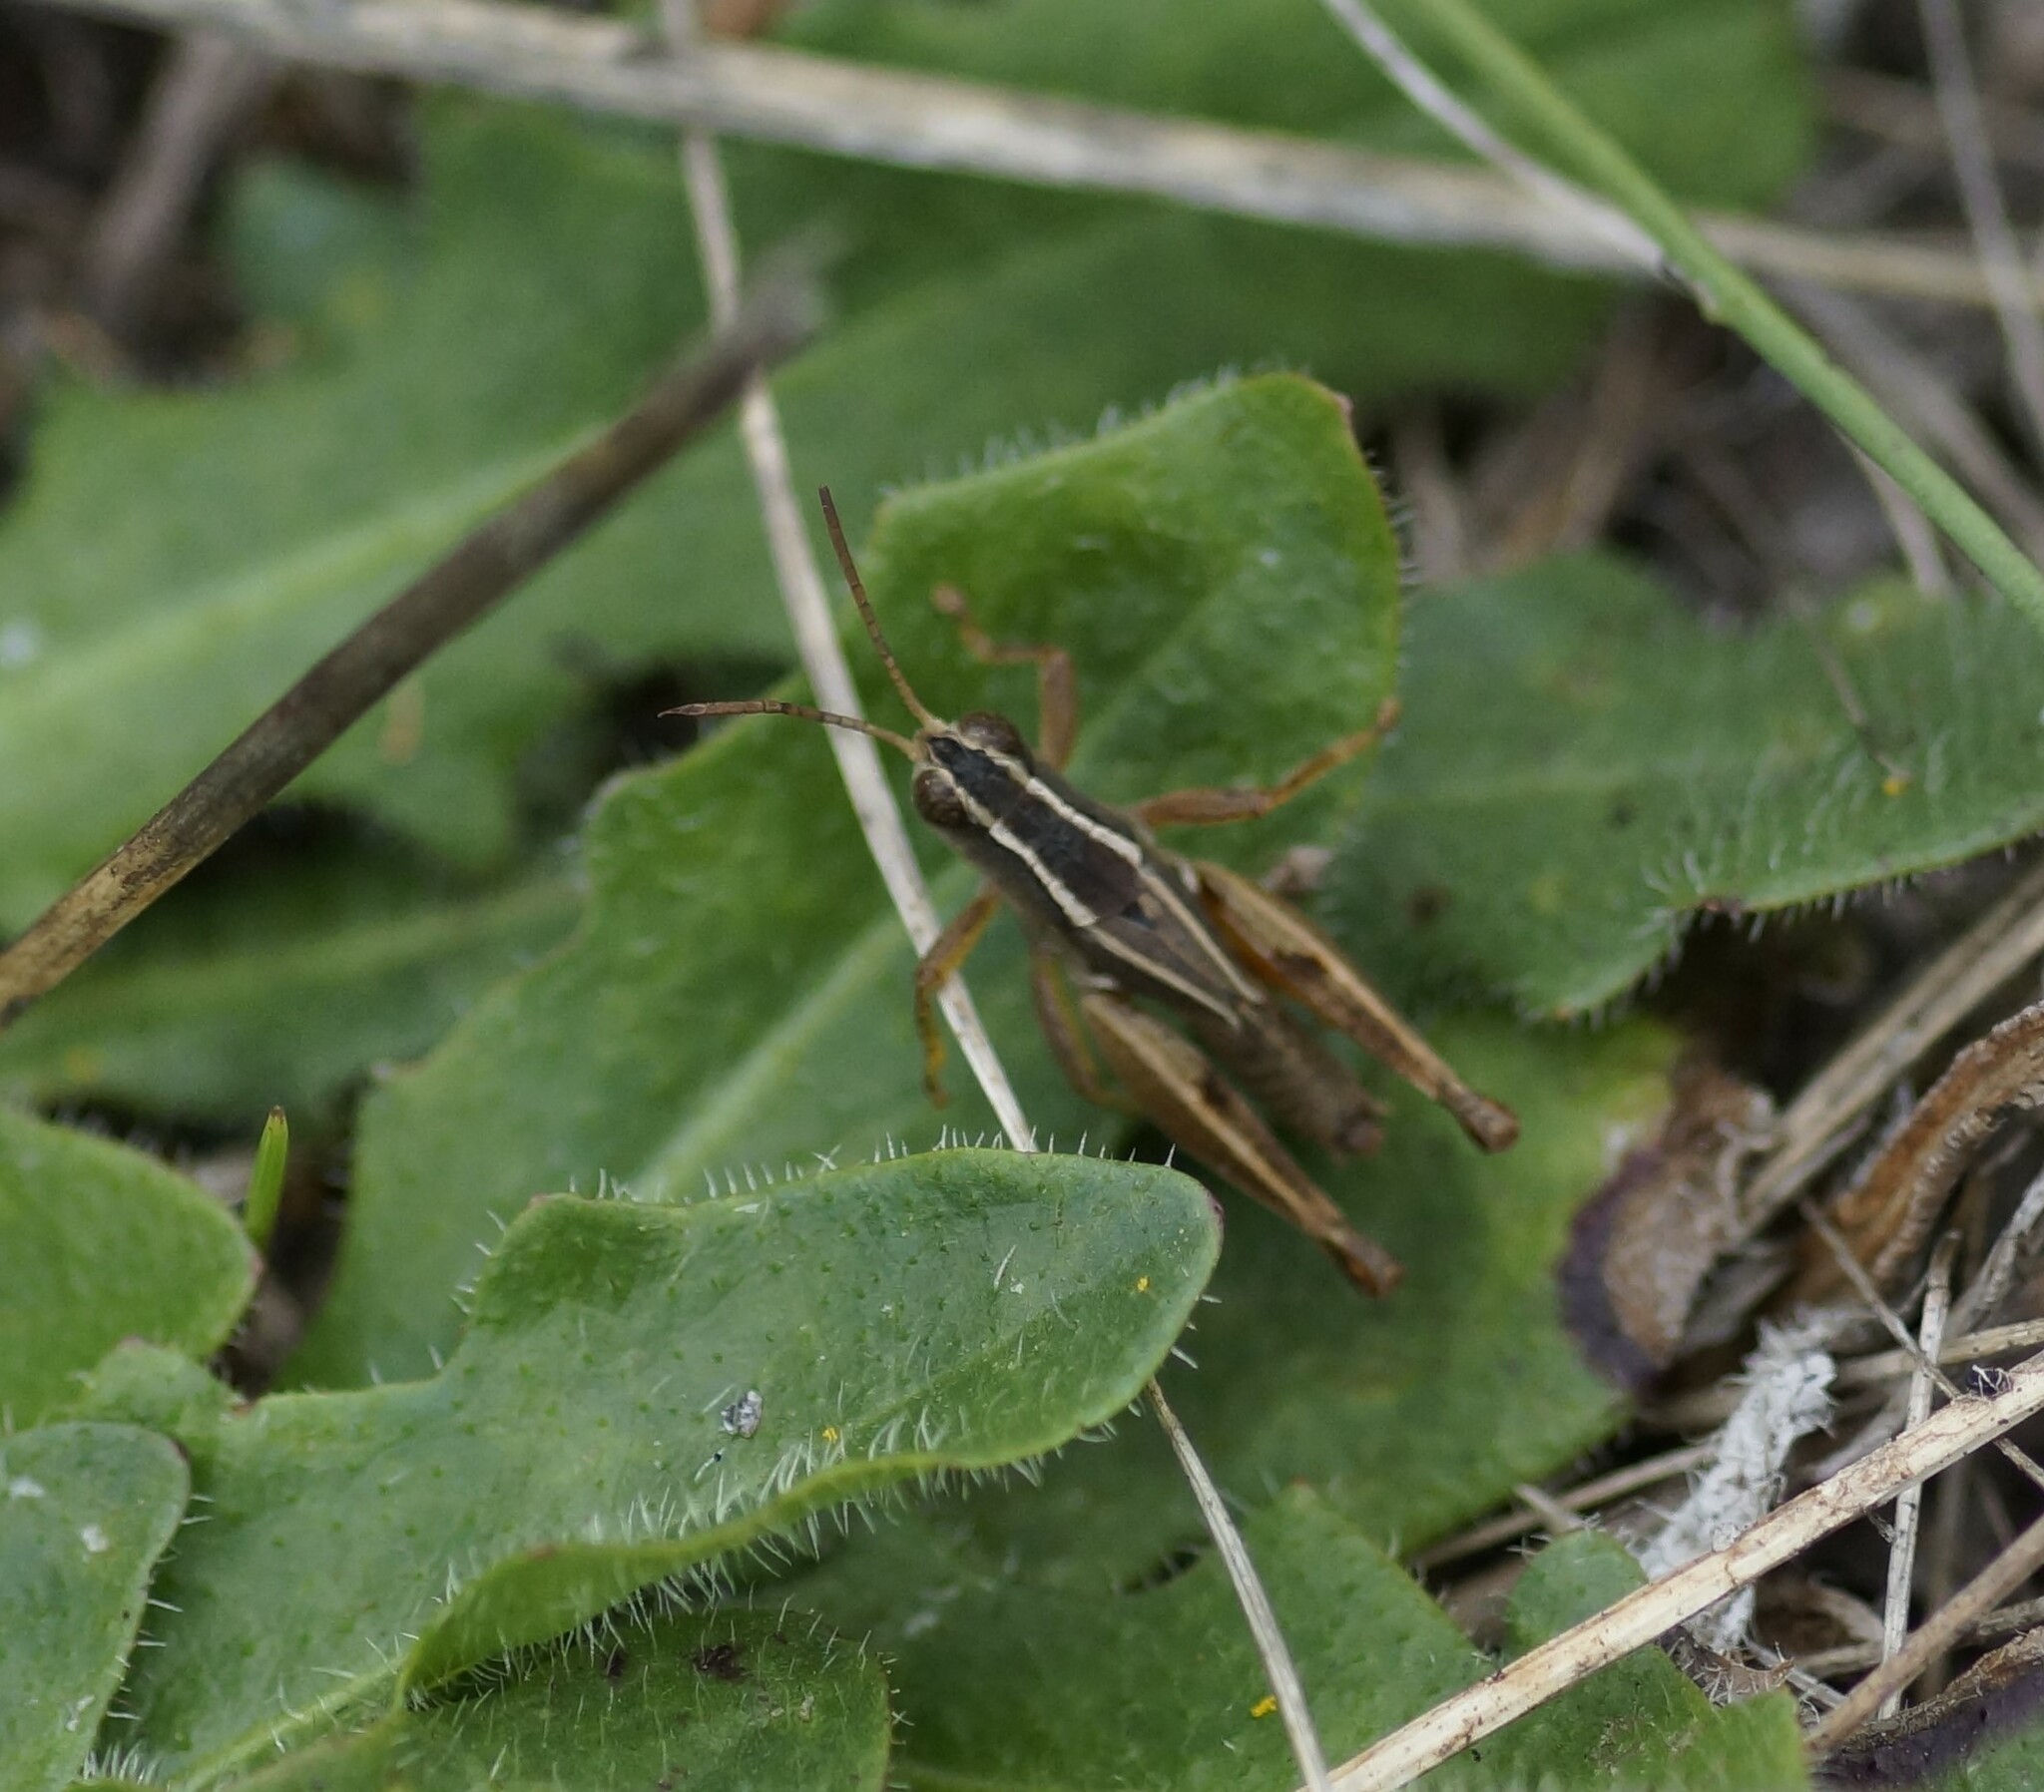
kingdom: Animalia
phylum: Arthropoda
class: Insecta
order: Orthoptera
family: Acrididae
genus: Phaulacridium
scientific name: Phaulacridium vittatum
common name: Wingless grasshopper
